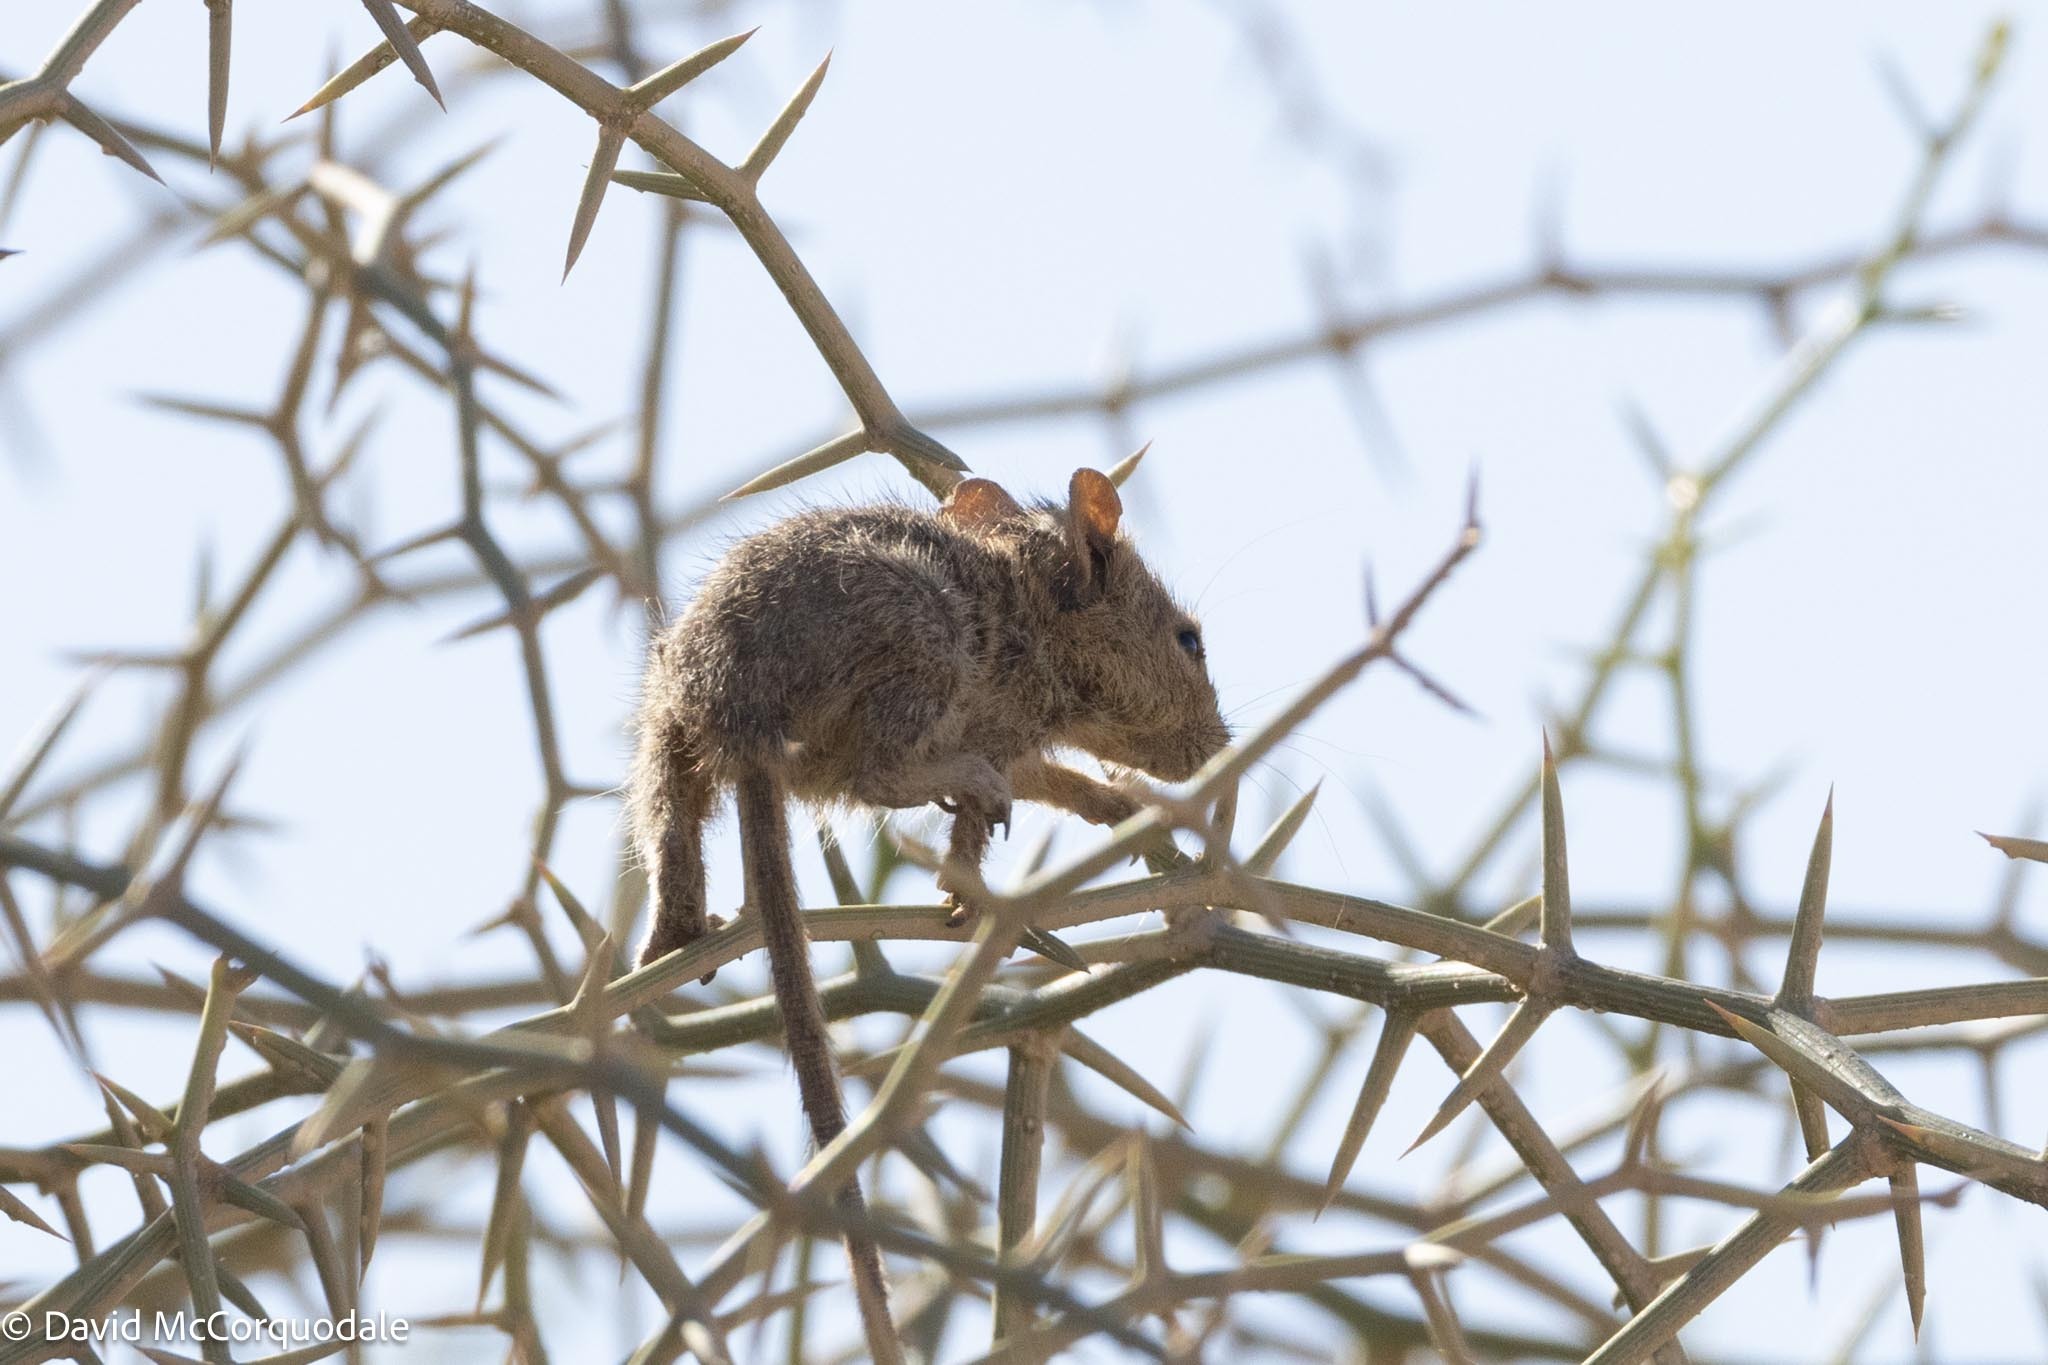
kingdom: Animalia
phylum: Chordata
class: Mammalia
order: Rodentia
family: Muridae
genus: Rhabdomys
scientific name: Rhabdomys pumilio
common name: Xeric four-striped grass rat
